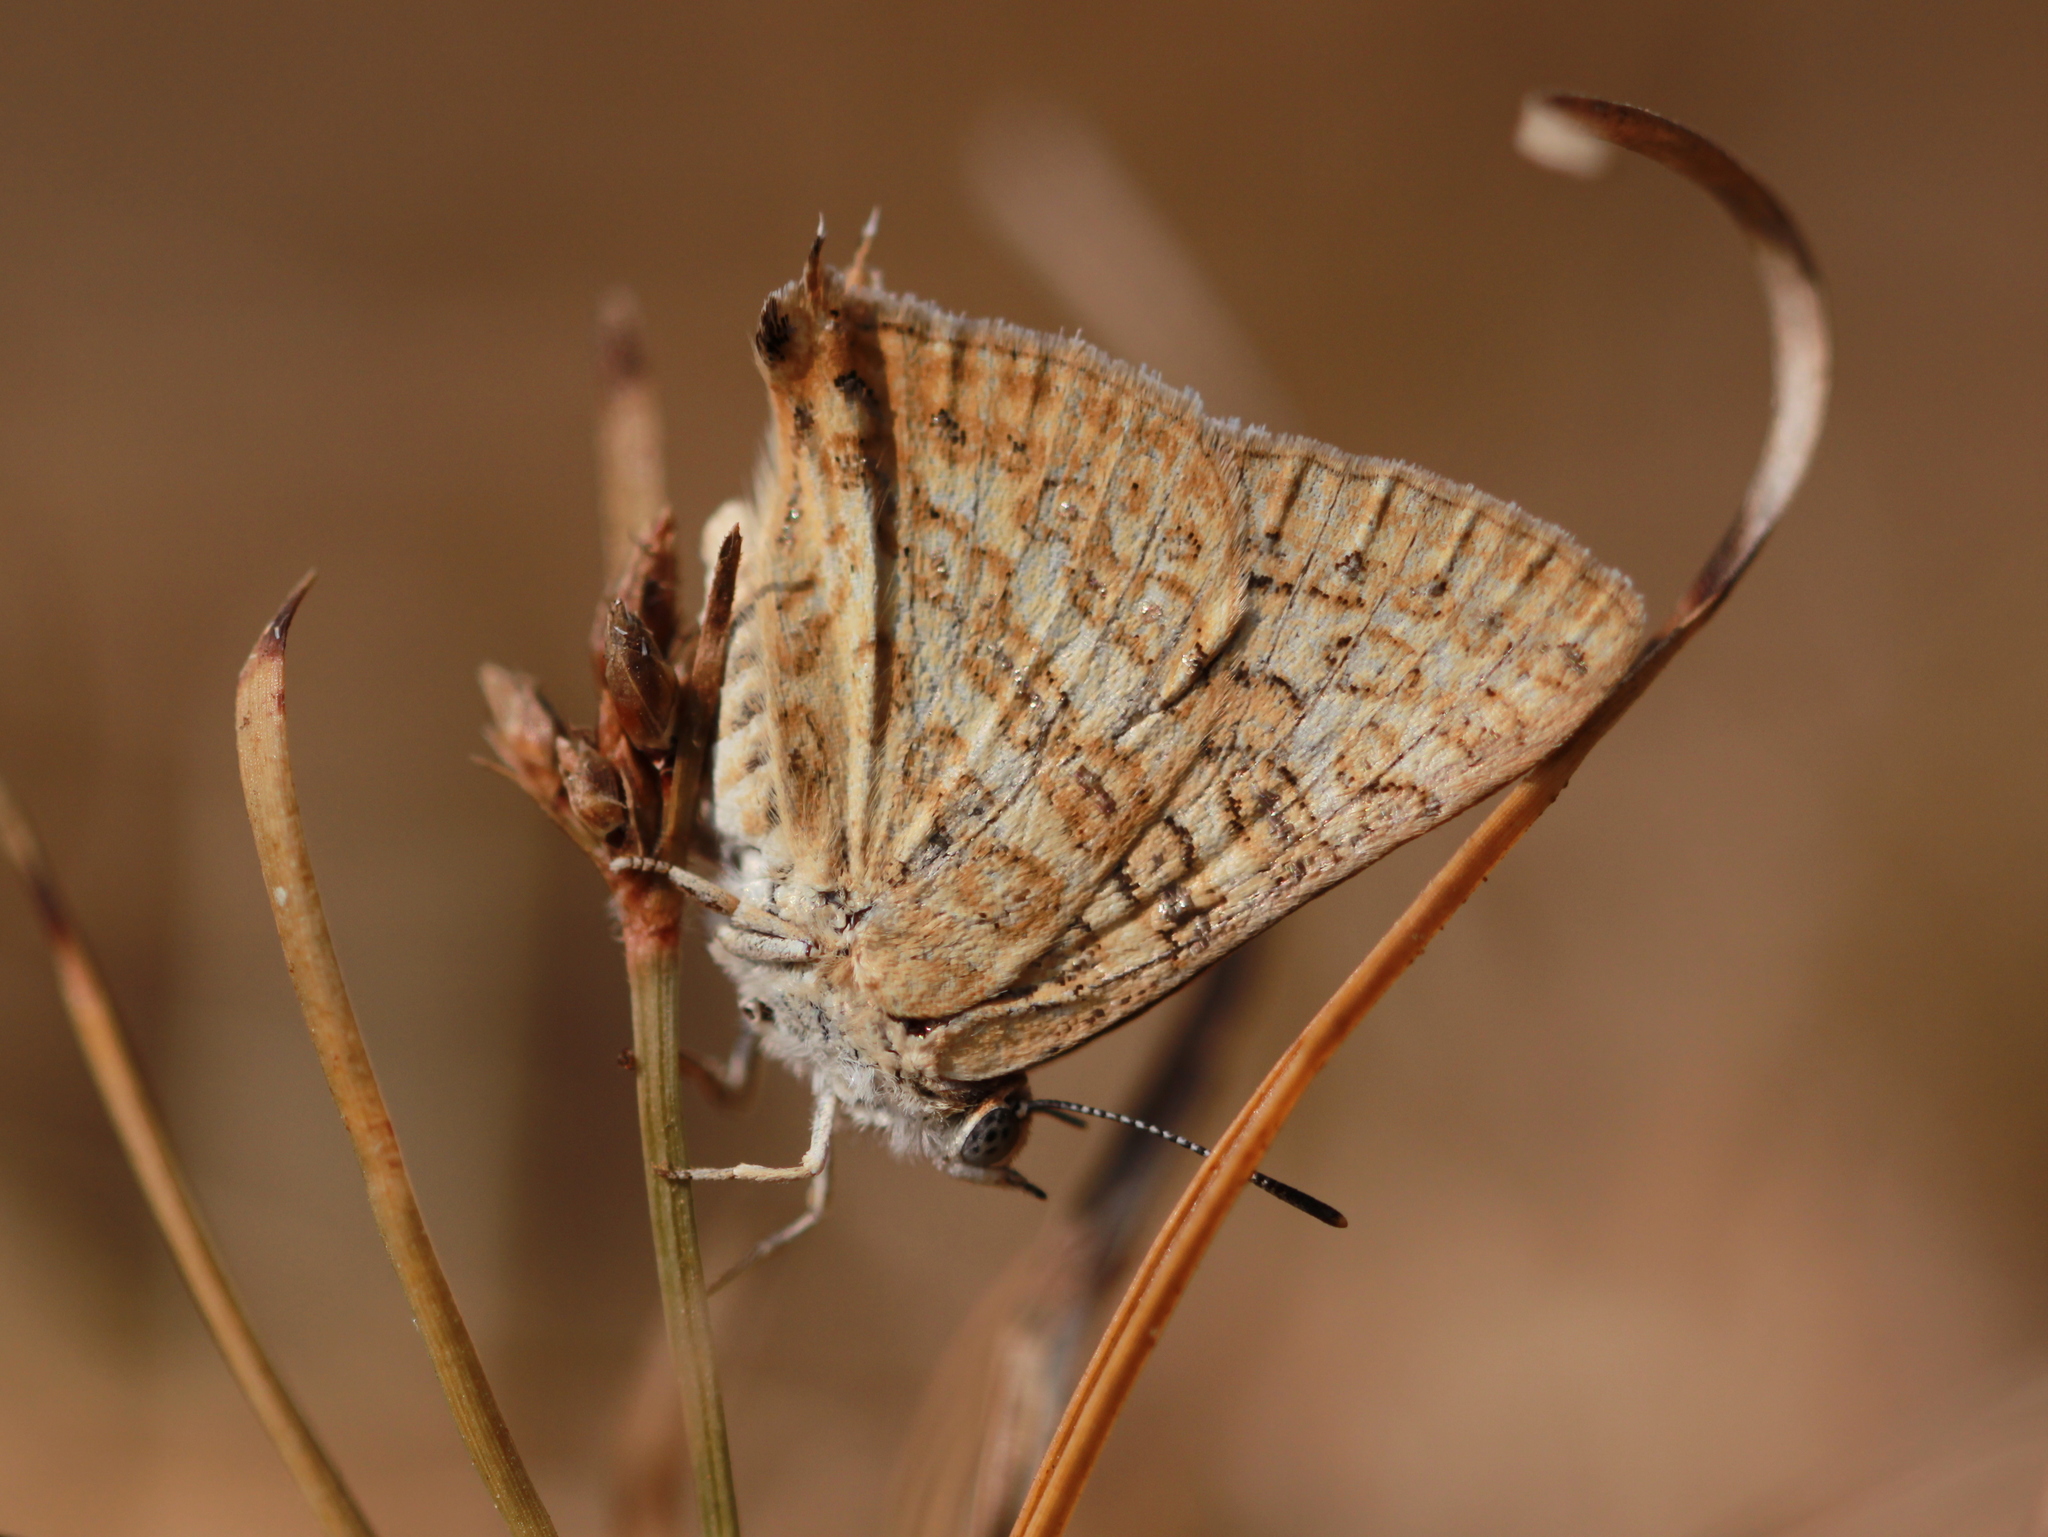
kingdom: Animalia
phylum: Arthropoda
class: Insecta
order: Lepidoptera
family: Lycaenidae
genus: Aphnaeus
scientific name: Aphnaeus lilacinus
